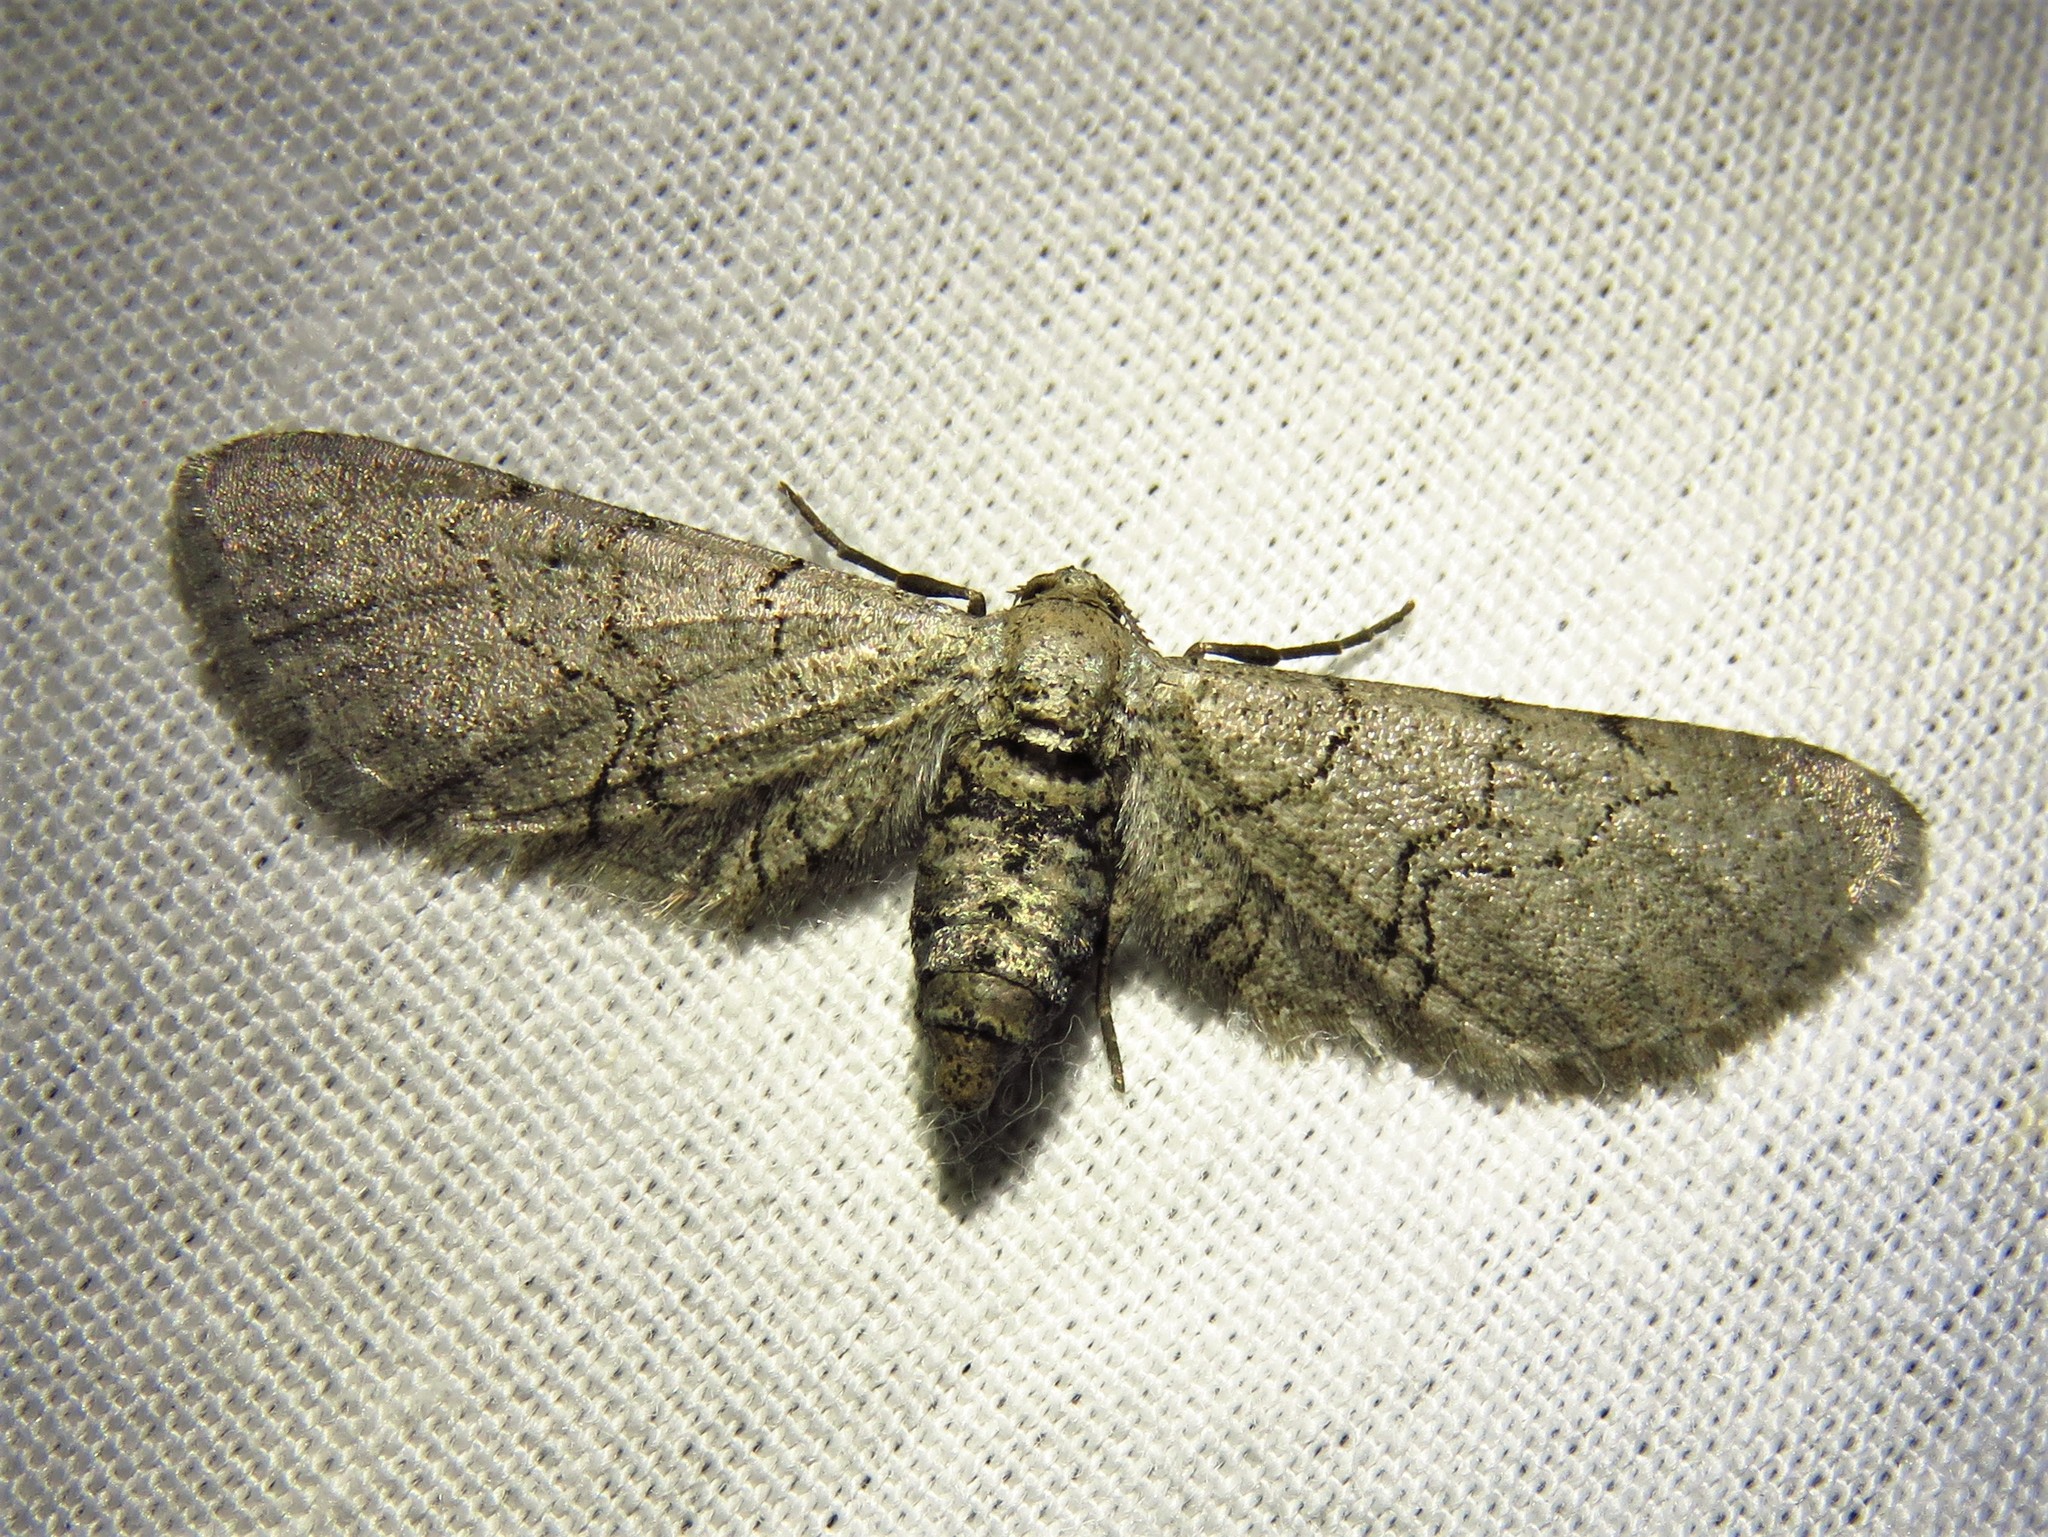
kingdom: Animalia
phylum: Arthropoda
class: Insecta
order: Lepidoptera
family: Geometridae
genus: Exelis
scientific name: Exelis ophiurus
